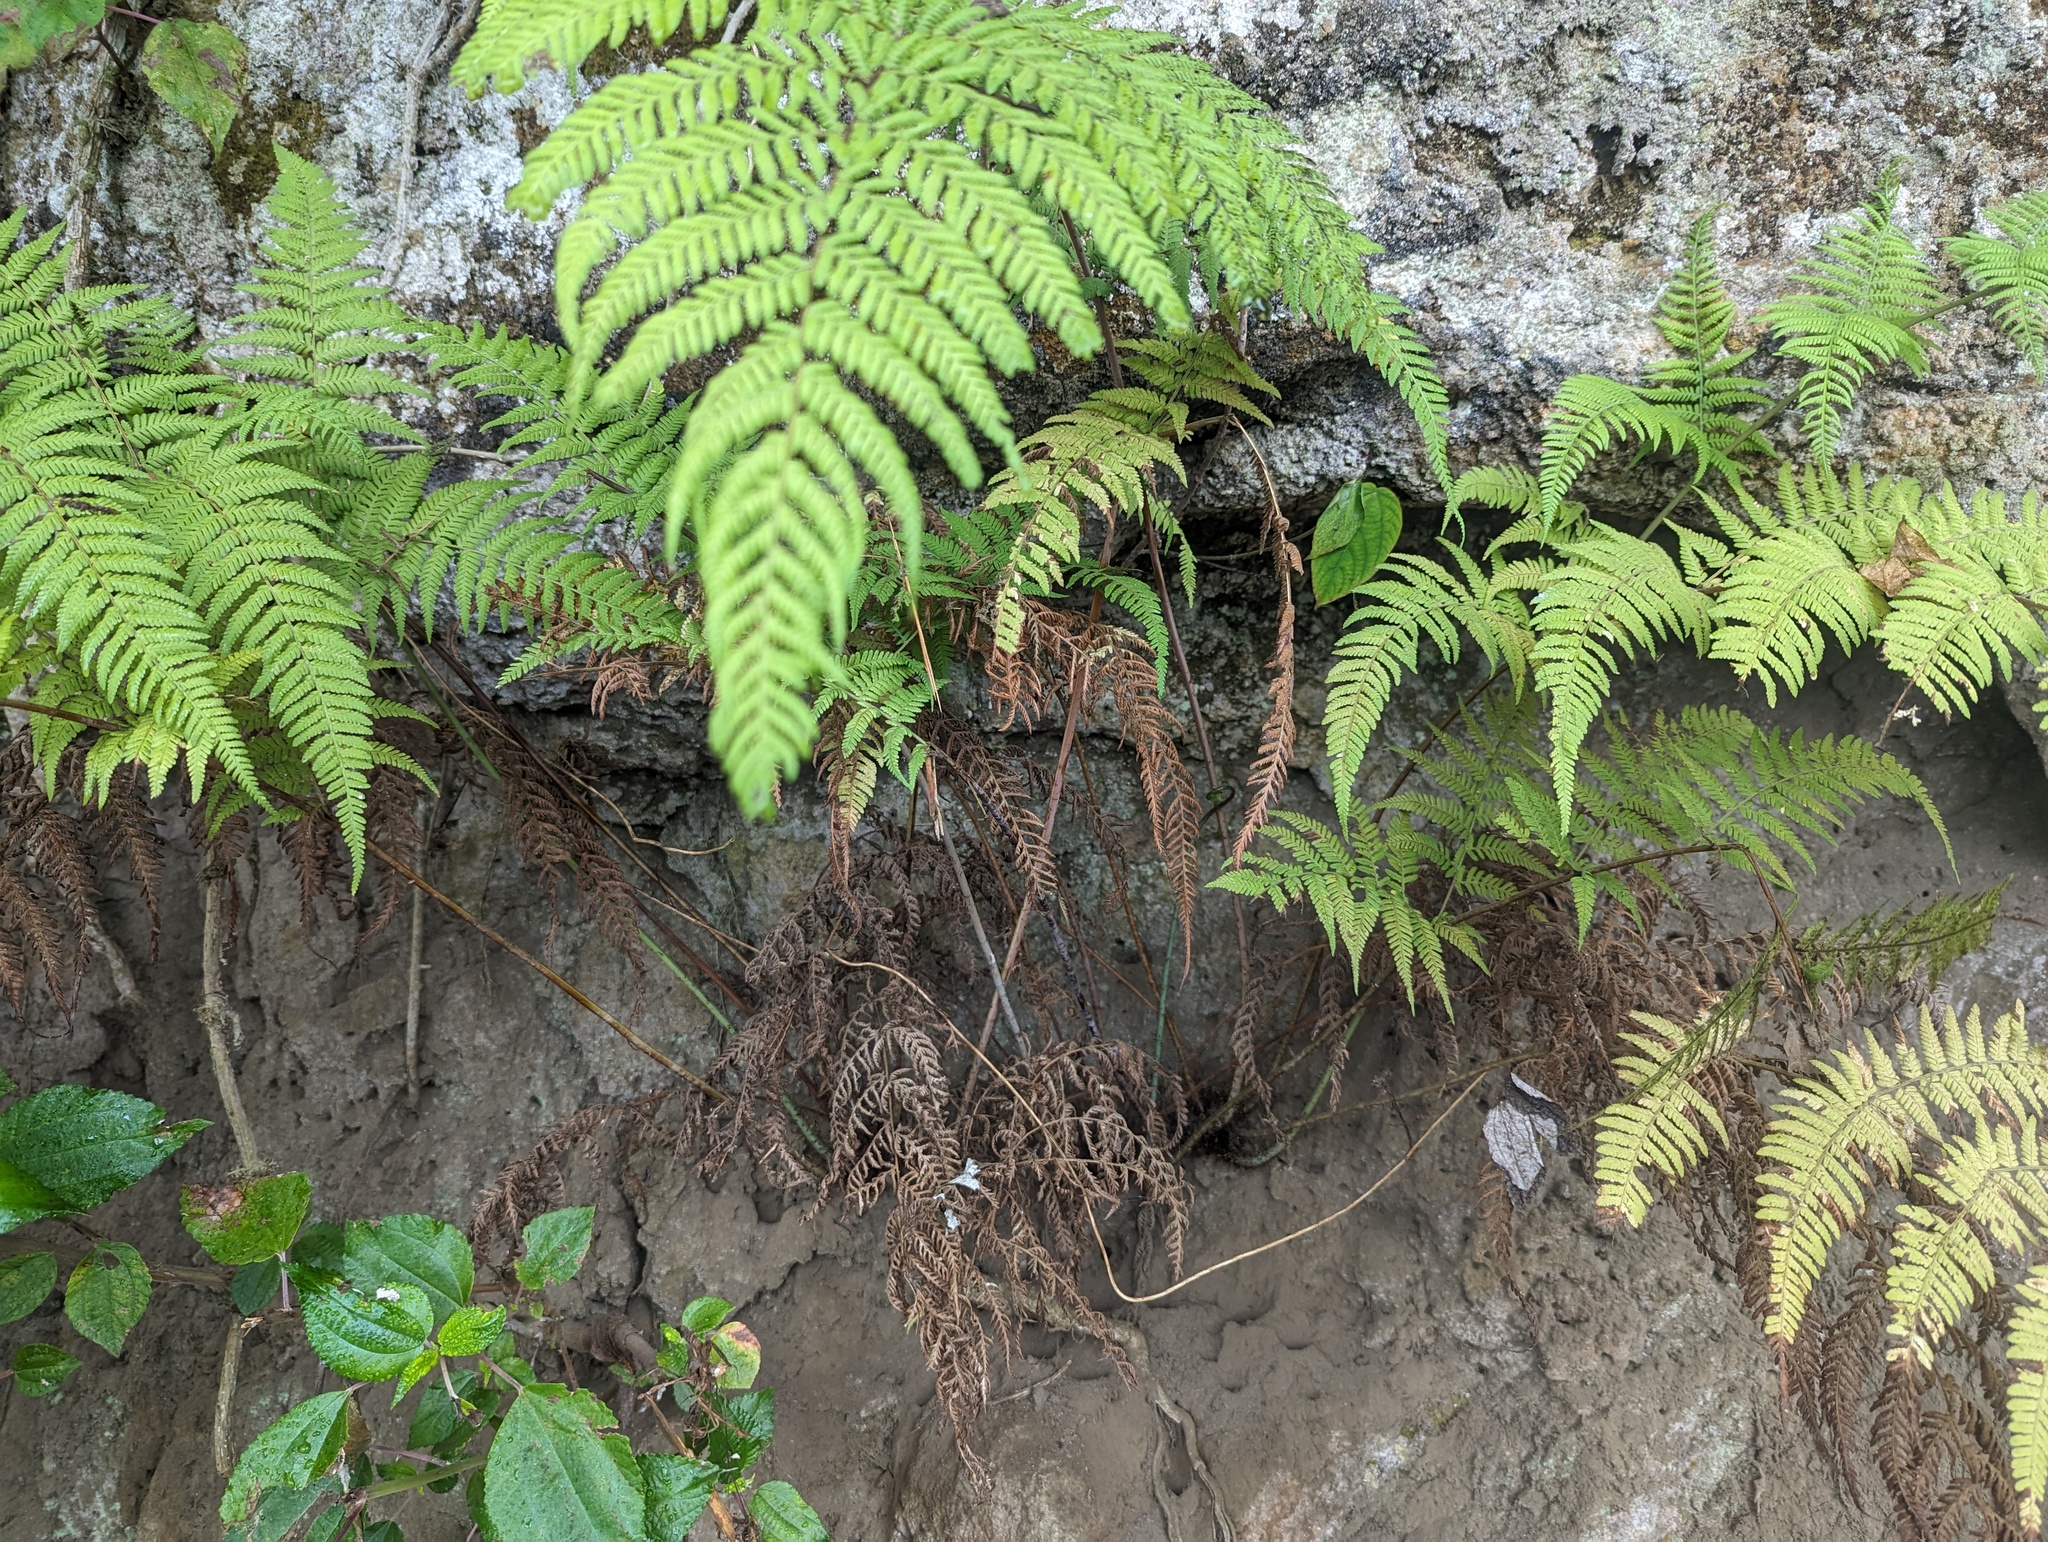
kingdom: Plantae
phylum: Tracheophyta
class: Polypodiopsida
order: Polypodiales
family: Thelypteridaceae
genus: Macrothelypteris
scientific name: Macrothelypteris torresiana
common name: Swordfern
